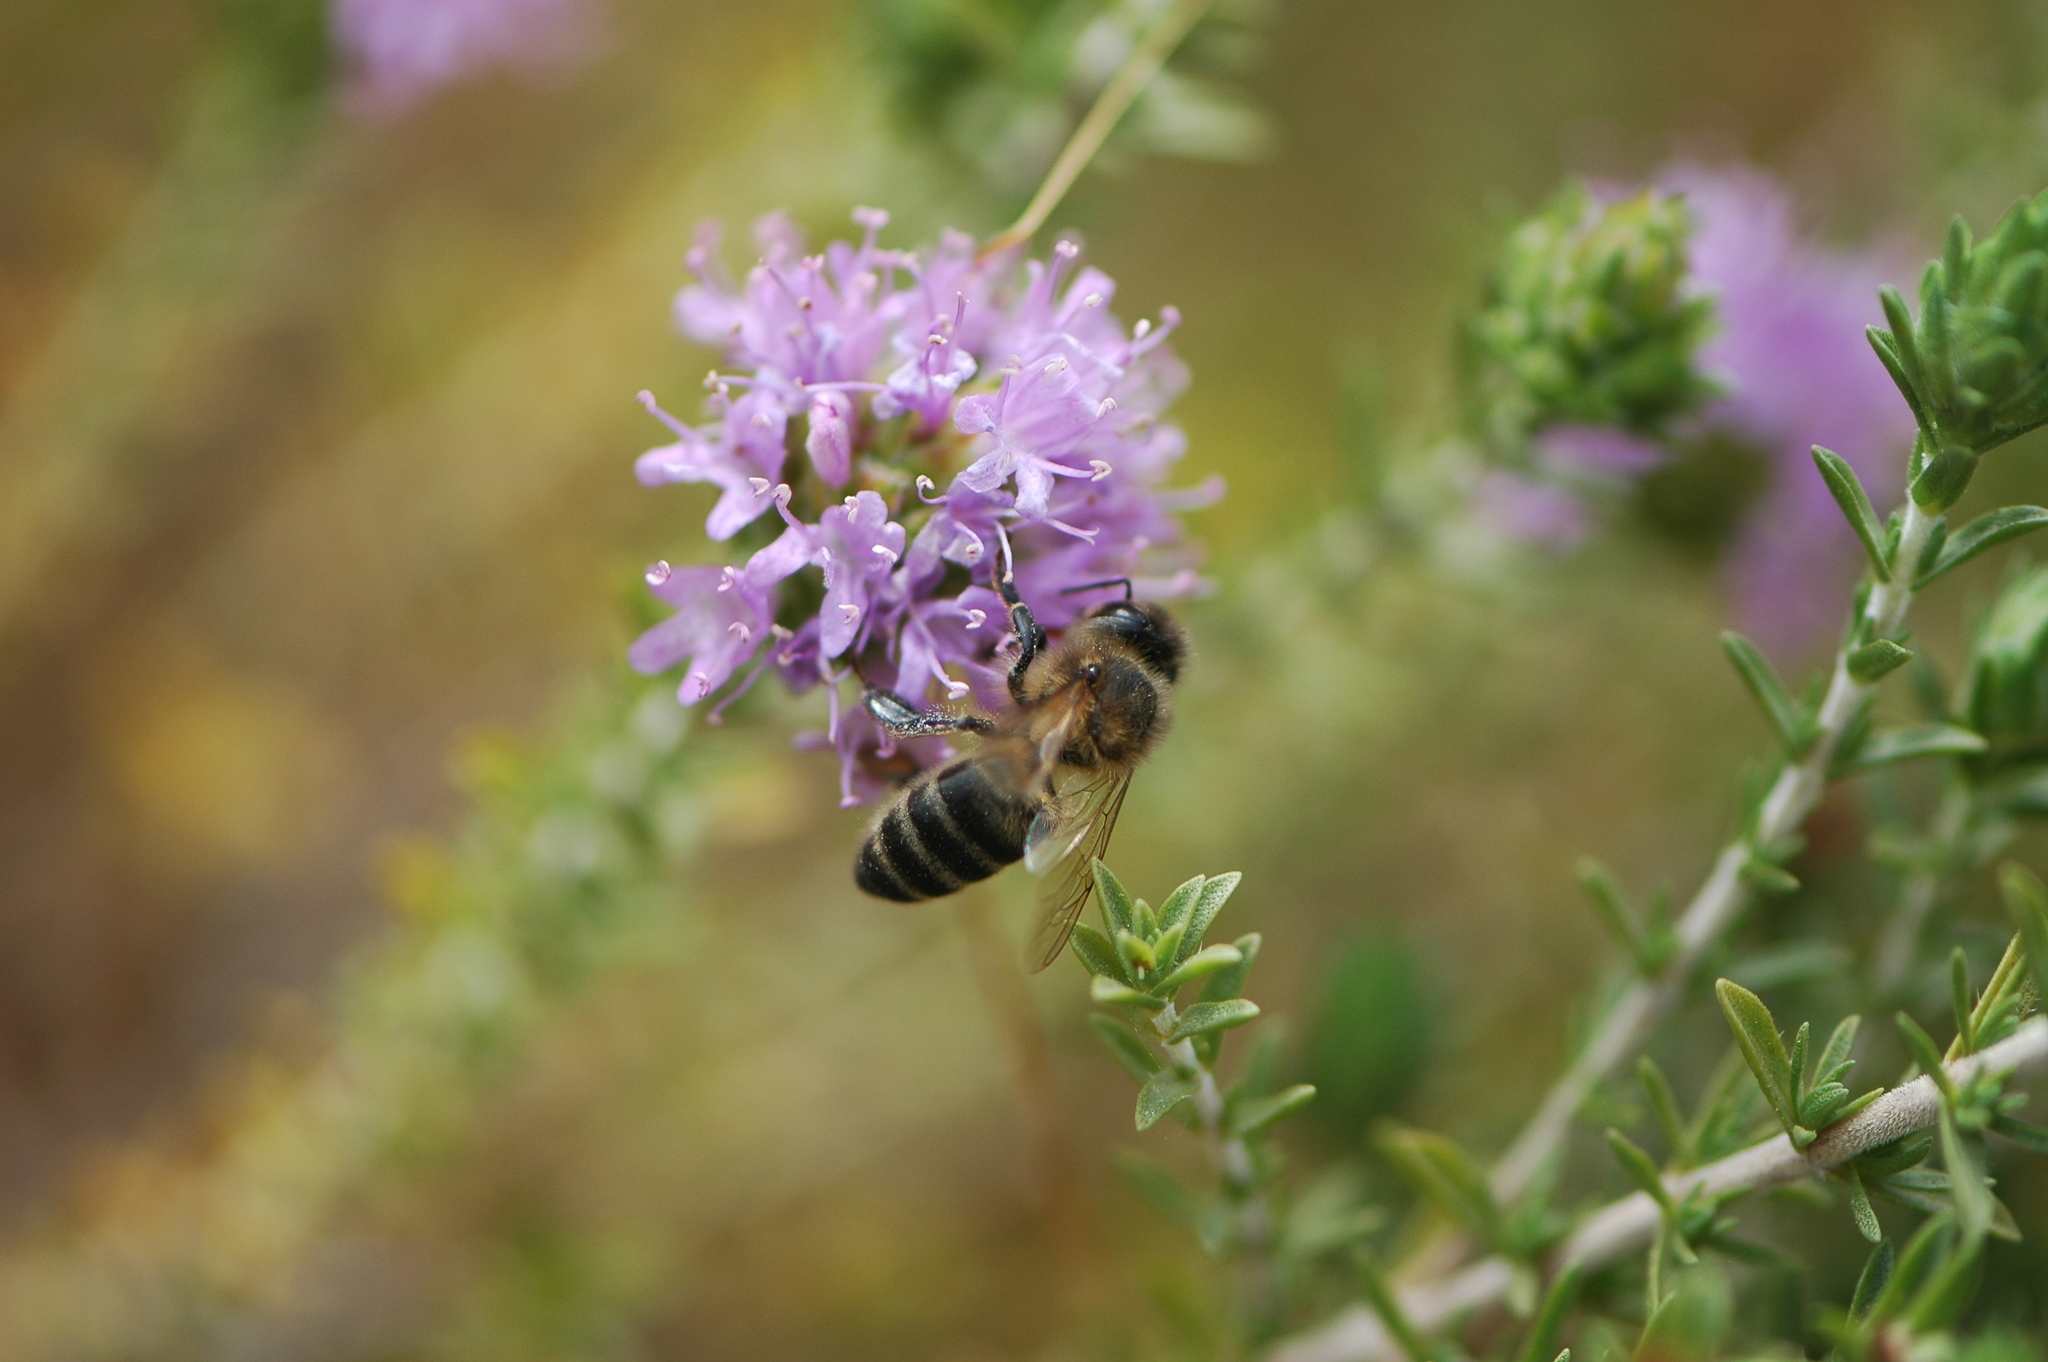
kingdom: Animalia
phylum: Arthropoda
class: Insecta
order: Hymenoptera
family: Apidae
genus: Apis
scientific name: Apis mellifera
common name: Honey bee
